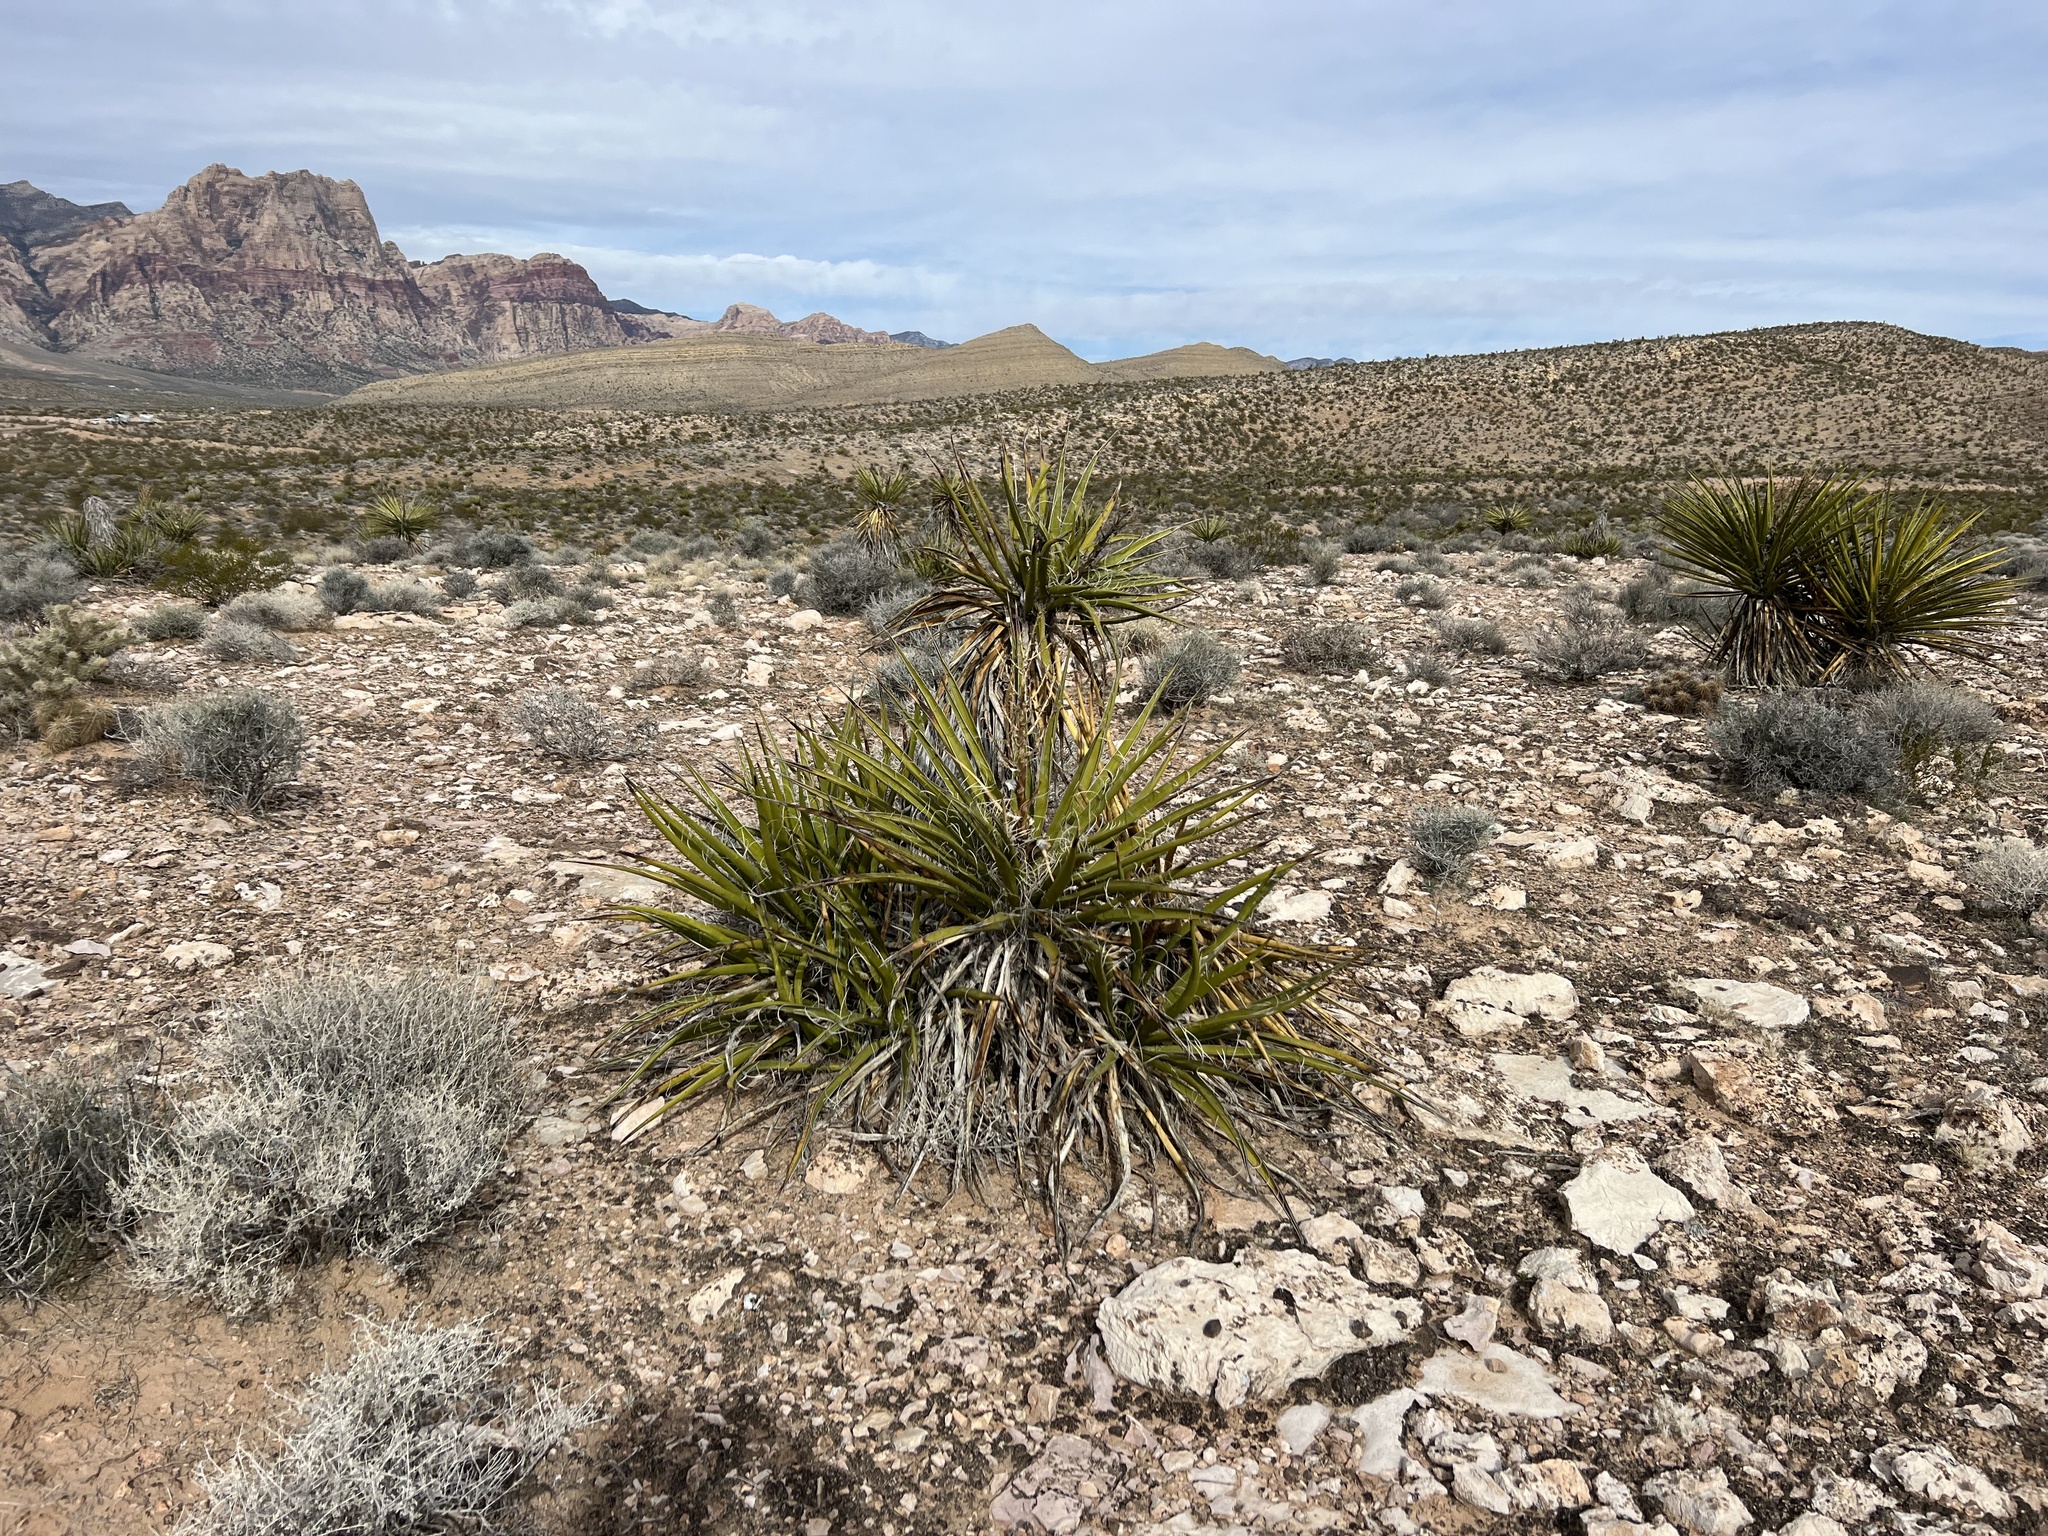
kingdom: Plantae
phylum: Tracheophyta
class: Liliopsida
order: Asparagales
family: Asparagaceae
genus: Yucca
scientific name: Yucca schidigera
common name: Mojave yucca
